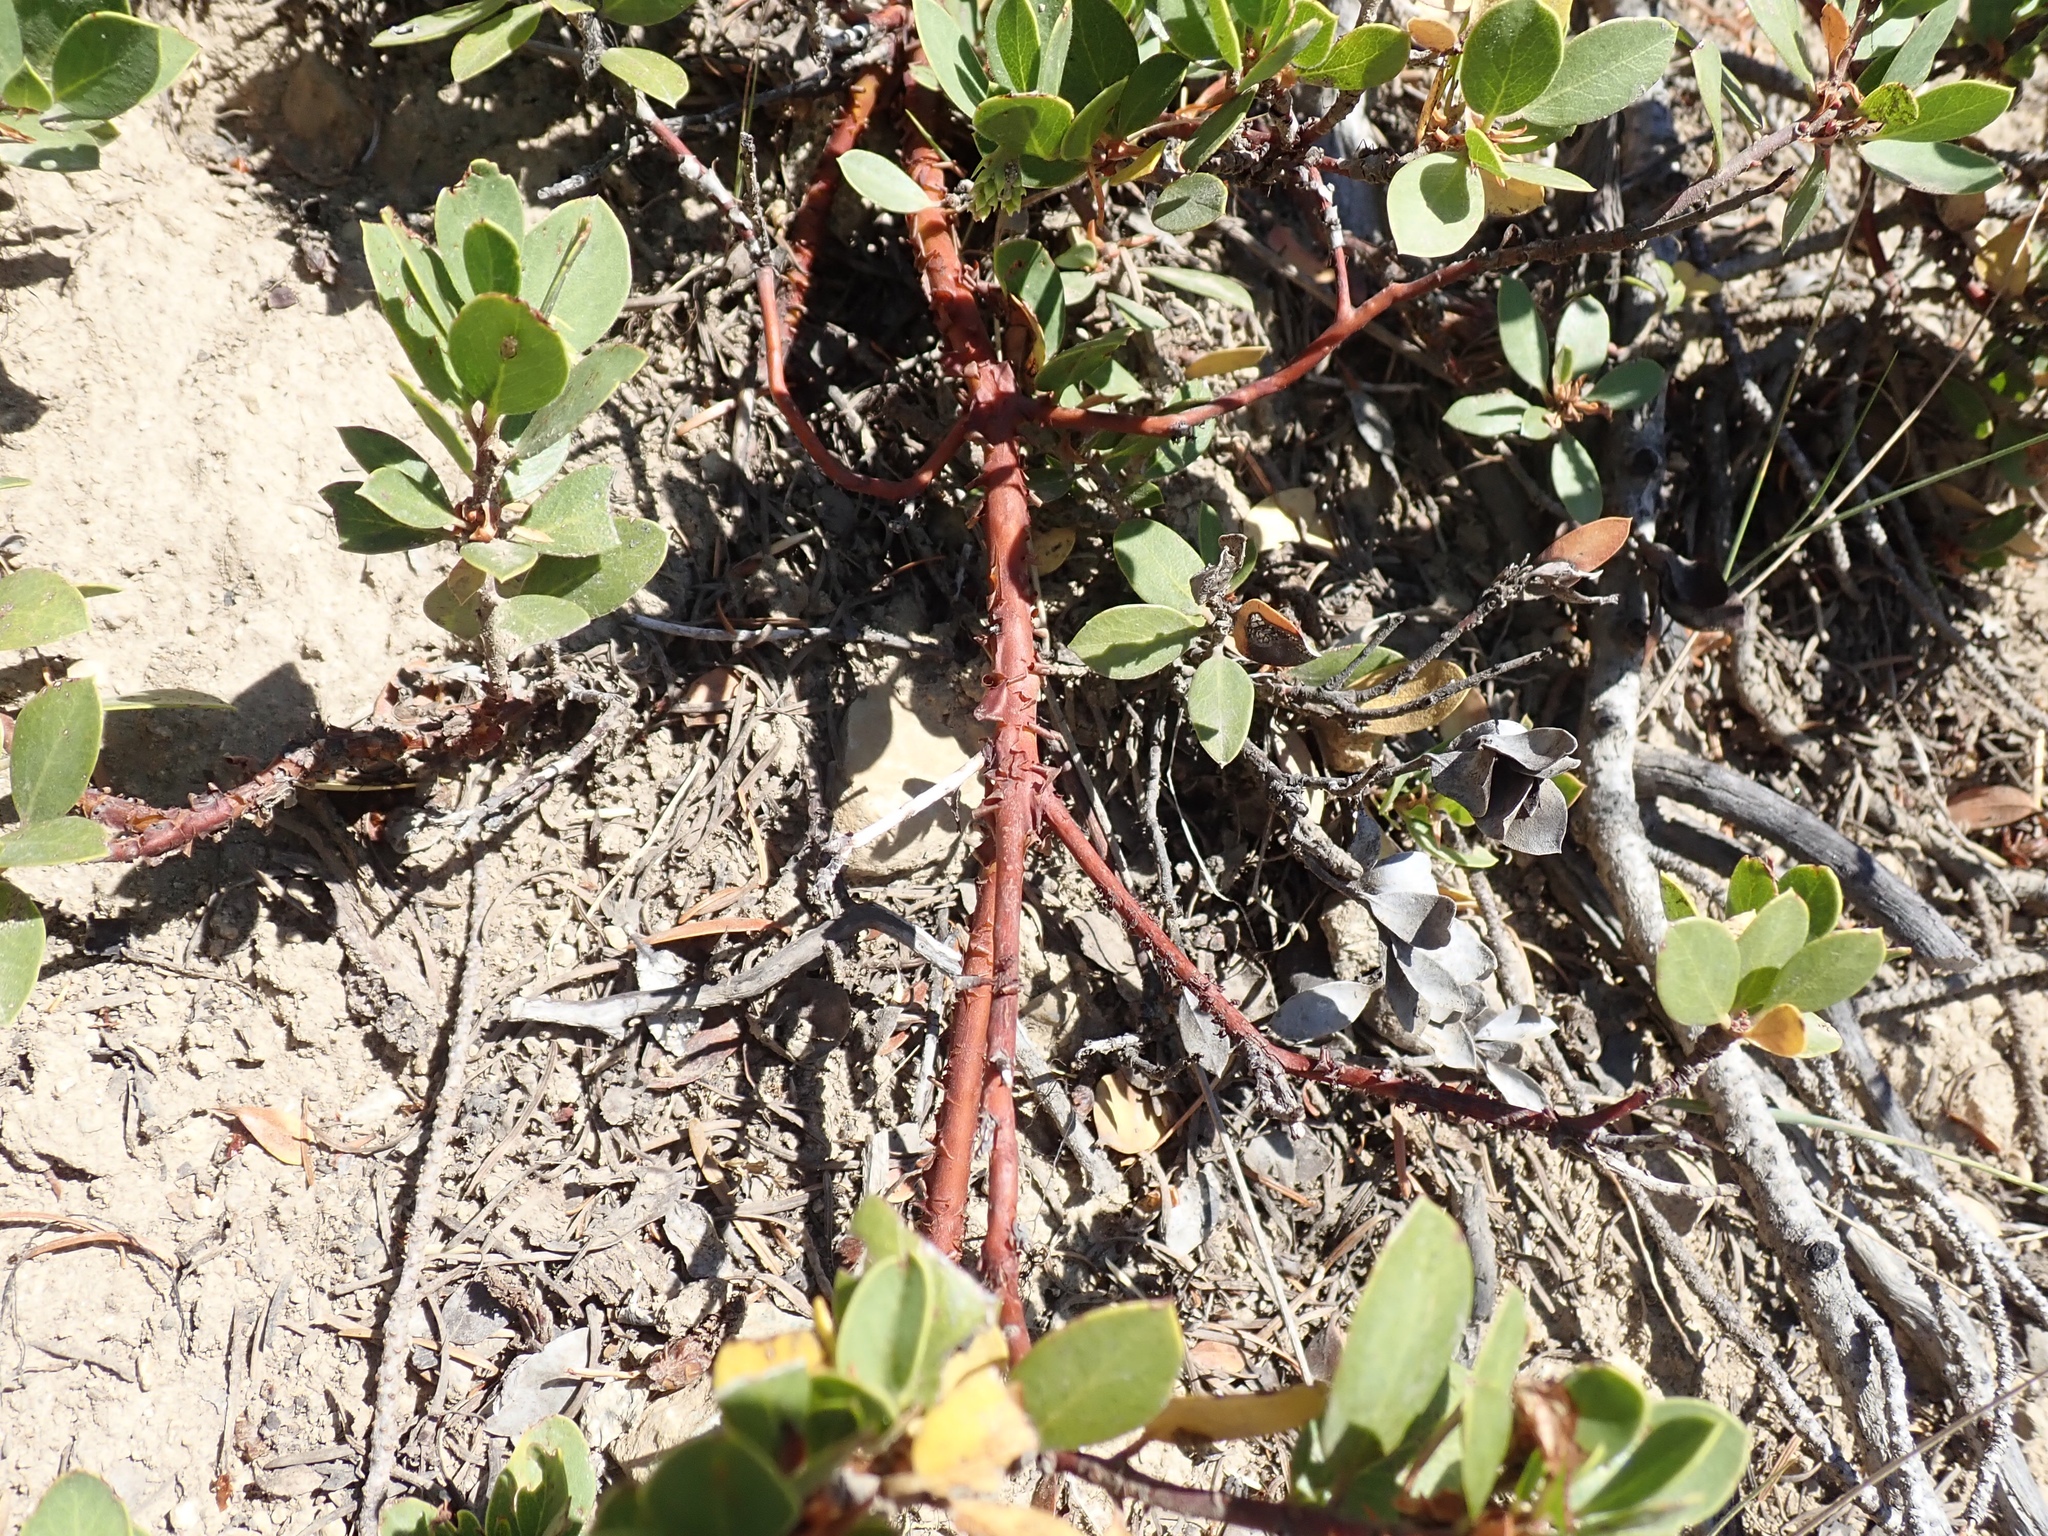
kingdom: Plantae
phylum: Tracheophyta
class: Magnoliopsida
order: Ericales
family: Ericaceae
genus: Arctostaphylos
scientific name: Arctostaphylos nevadensis
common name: Pinemat manzanita
